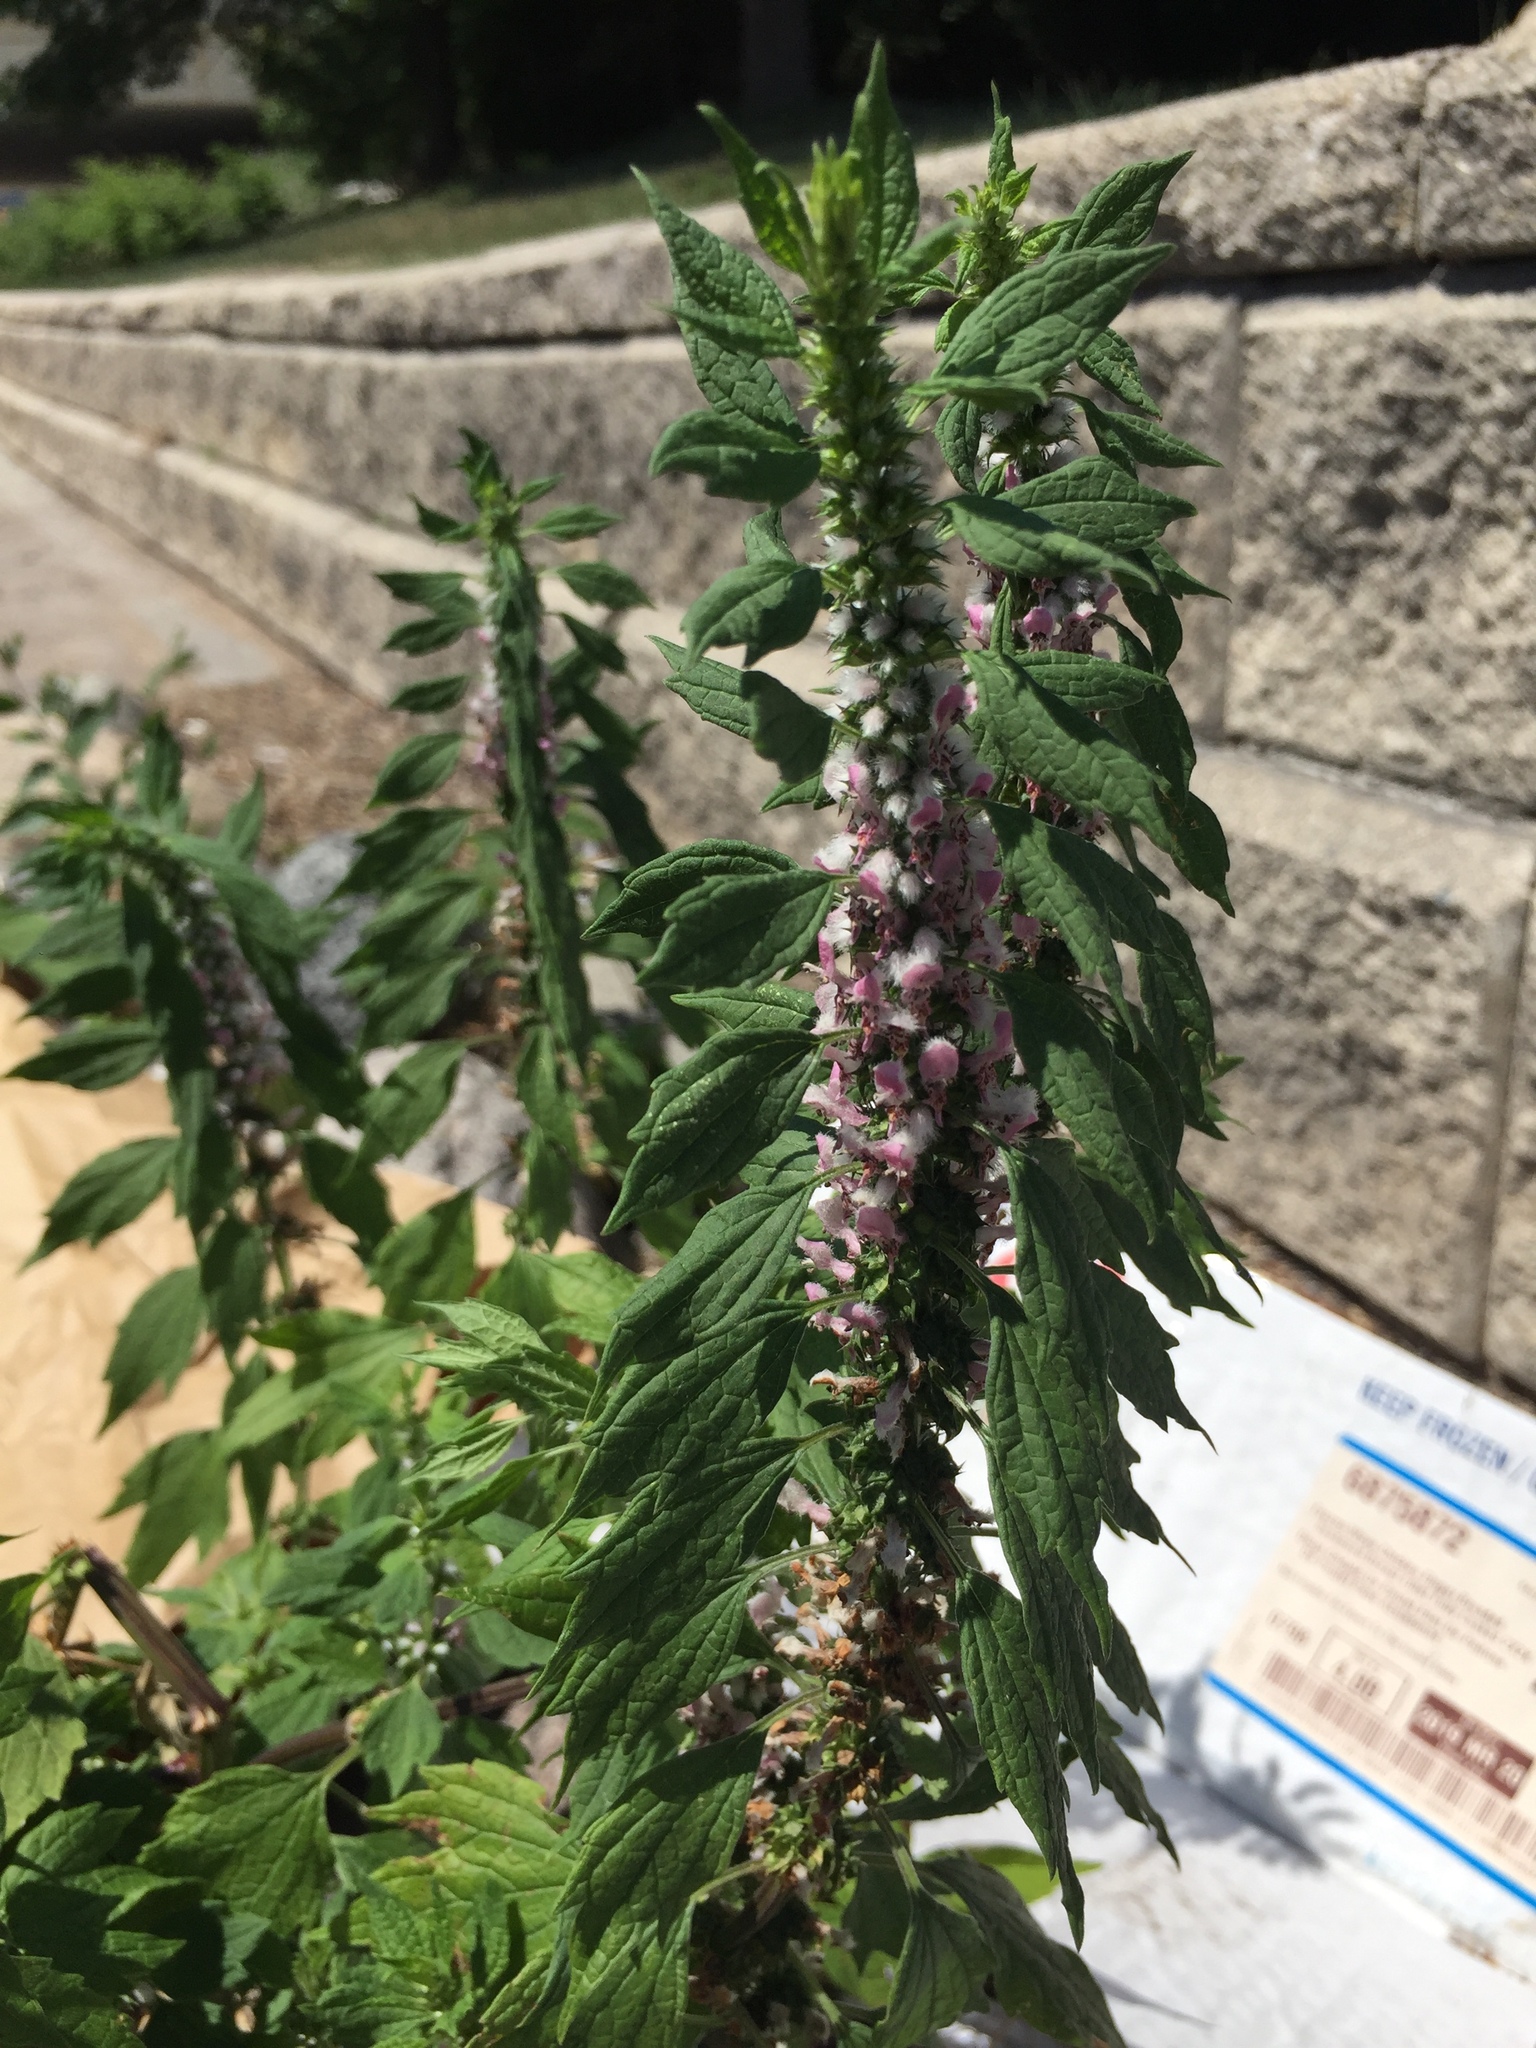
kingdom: Plantae
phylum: Tracheophyta
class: Magnoliopsida
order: Lamiales
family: Lamiaceae
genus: Leonurus
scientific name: Leonurus cardiaca
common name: Motherwort
